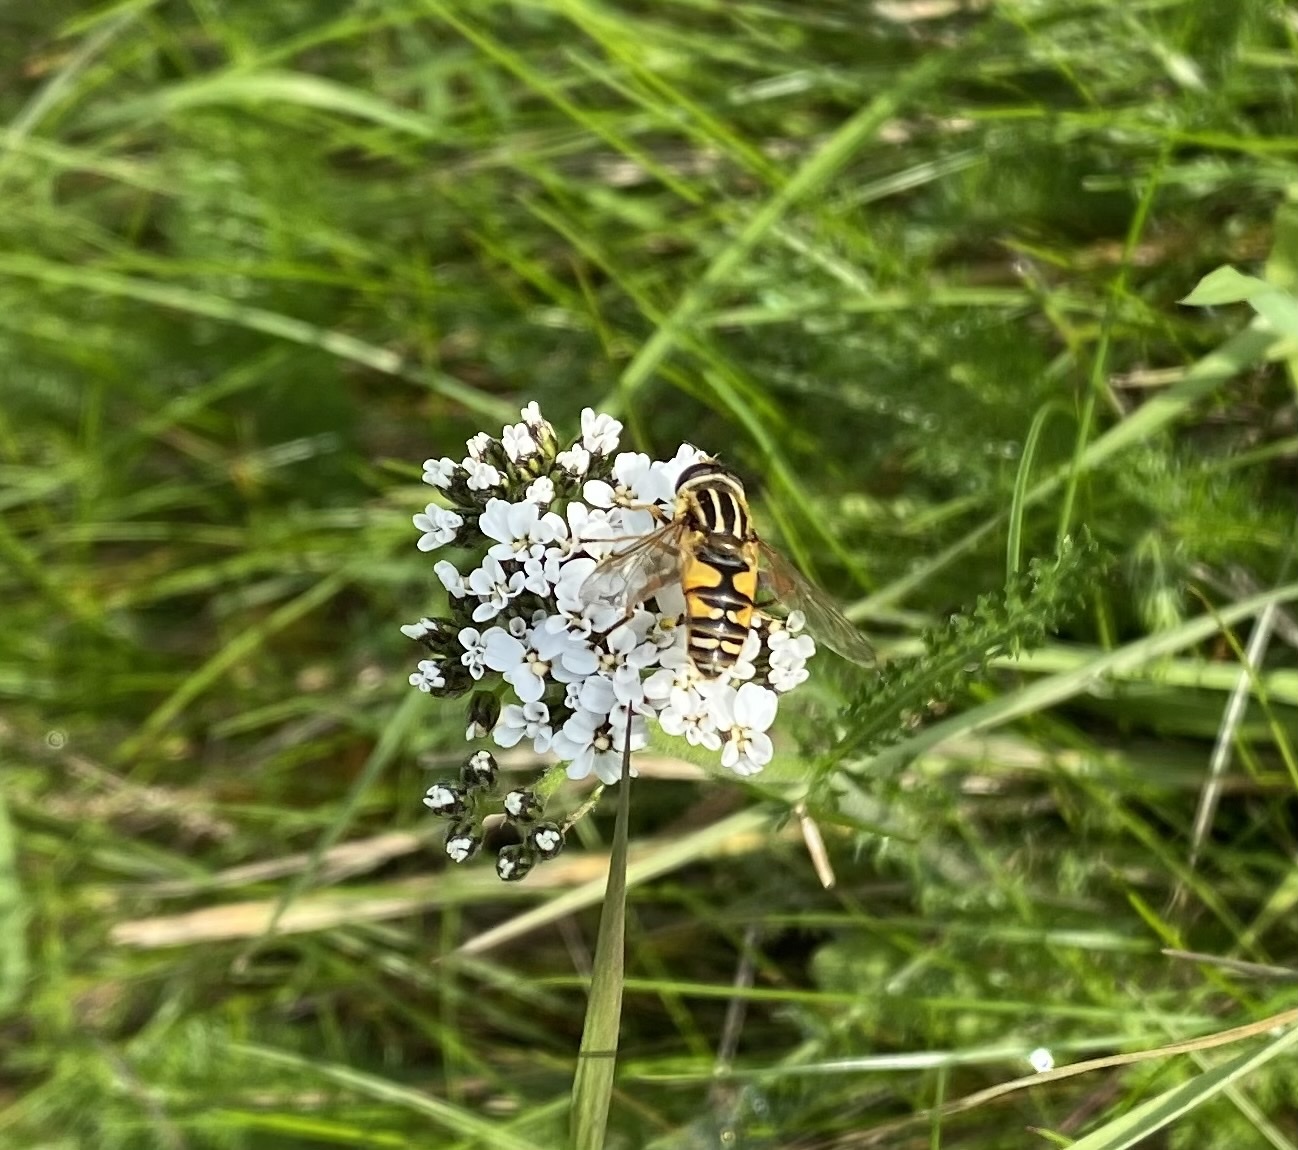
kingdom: Animalia
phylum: Arthropoda
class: Insecta
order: Diptera
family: Syrphidae
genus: Helophilus
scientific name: Helophilus pendulus
